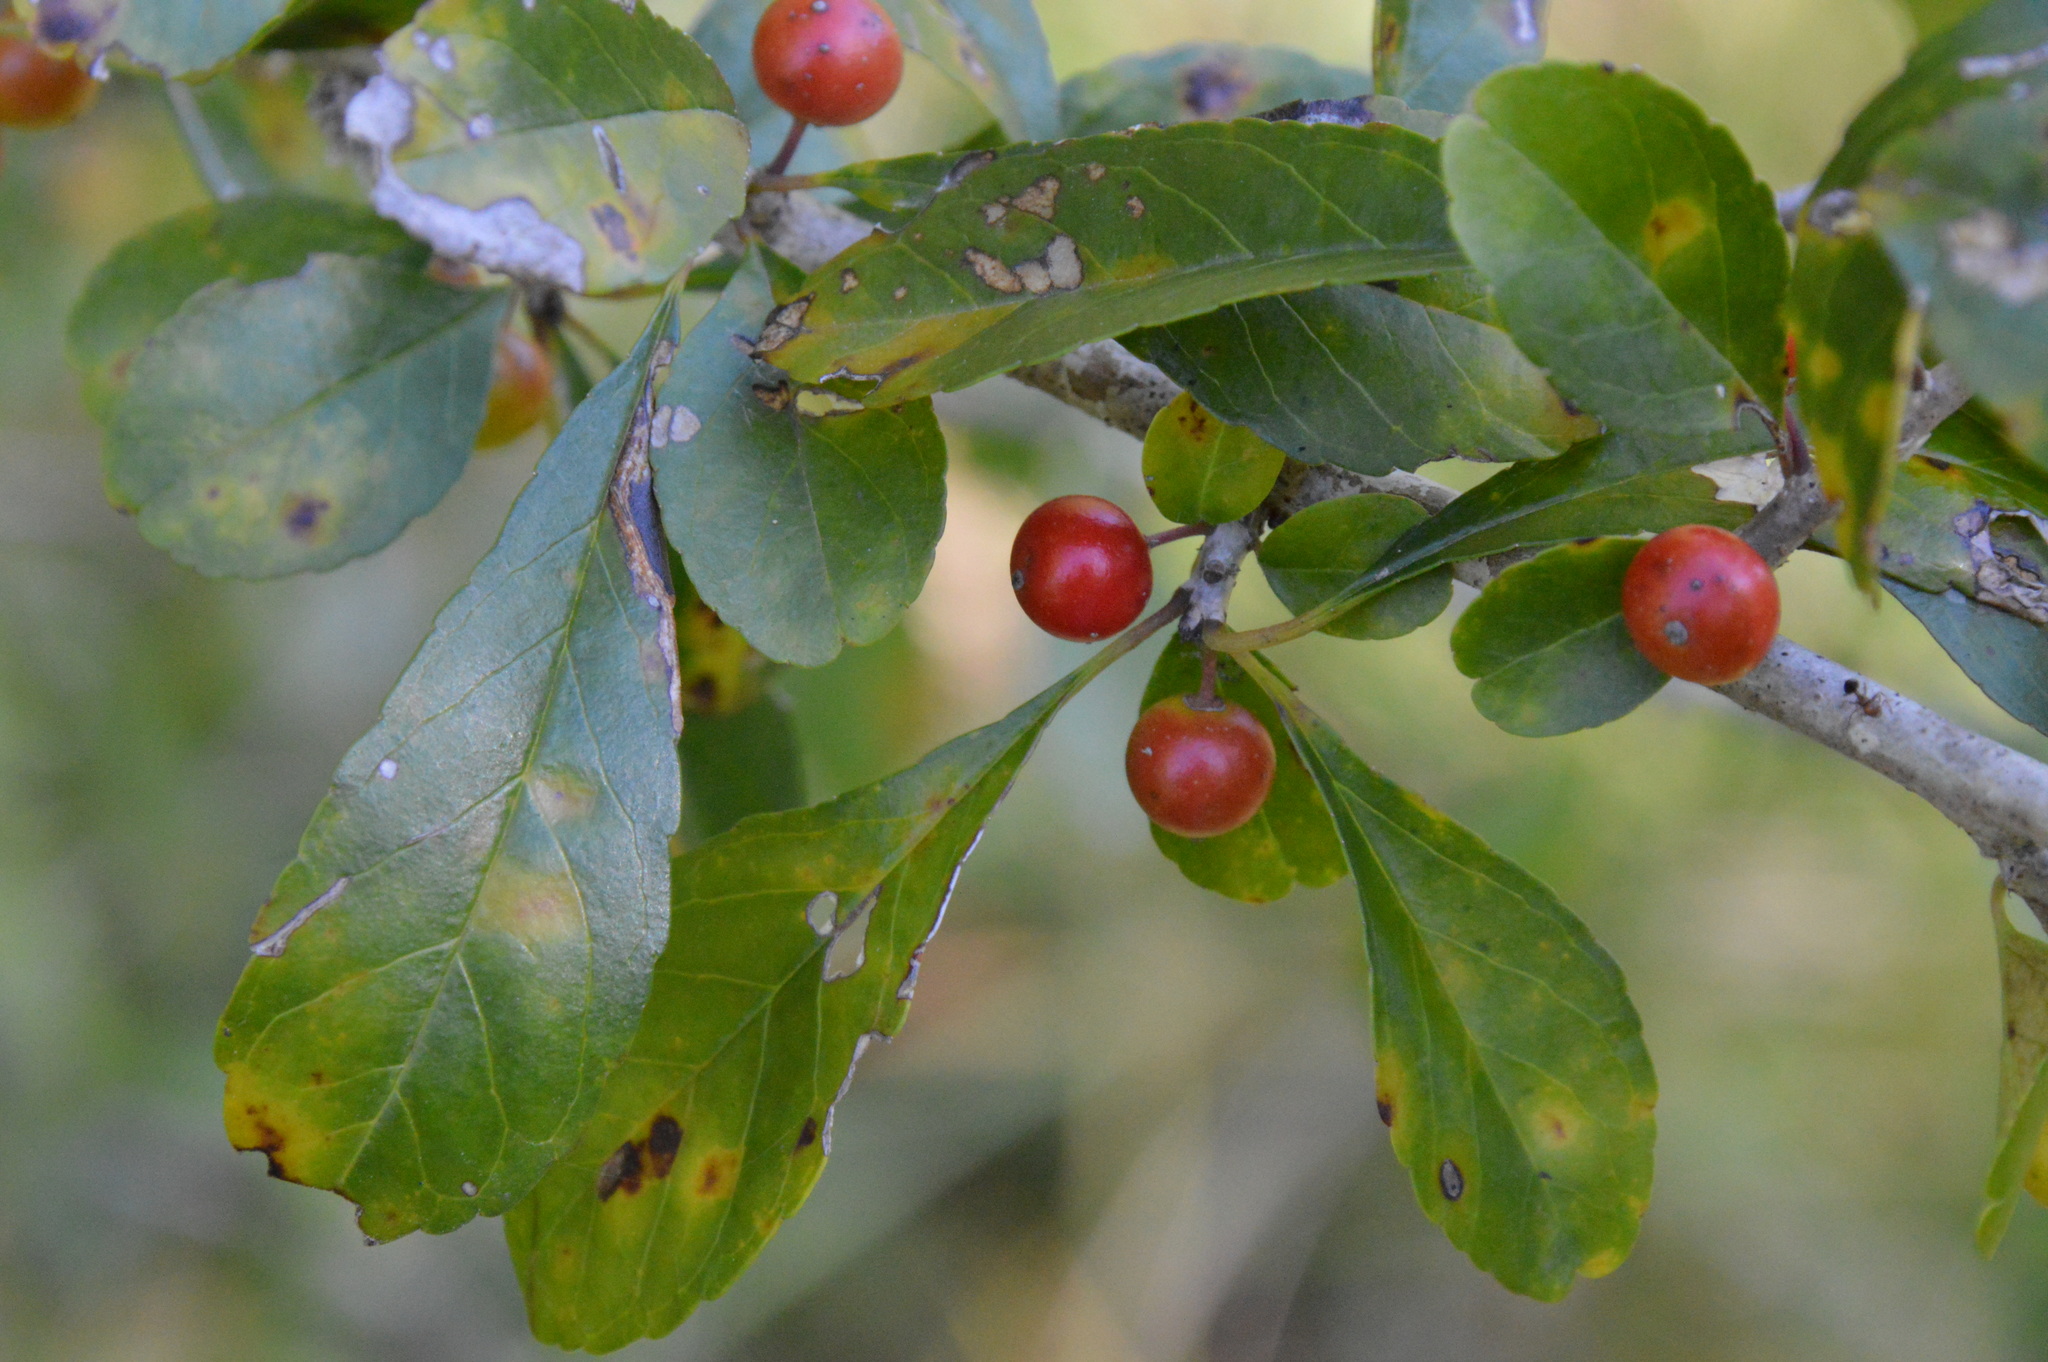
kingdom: Plantae
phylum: Tracheophyta
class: Magnoliopsida
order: Aquifoliales
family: Aquifoliaceae
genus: Ilex
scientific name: Ilex decidua
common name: Possum-haw
